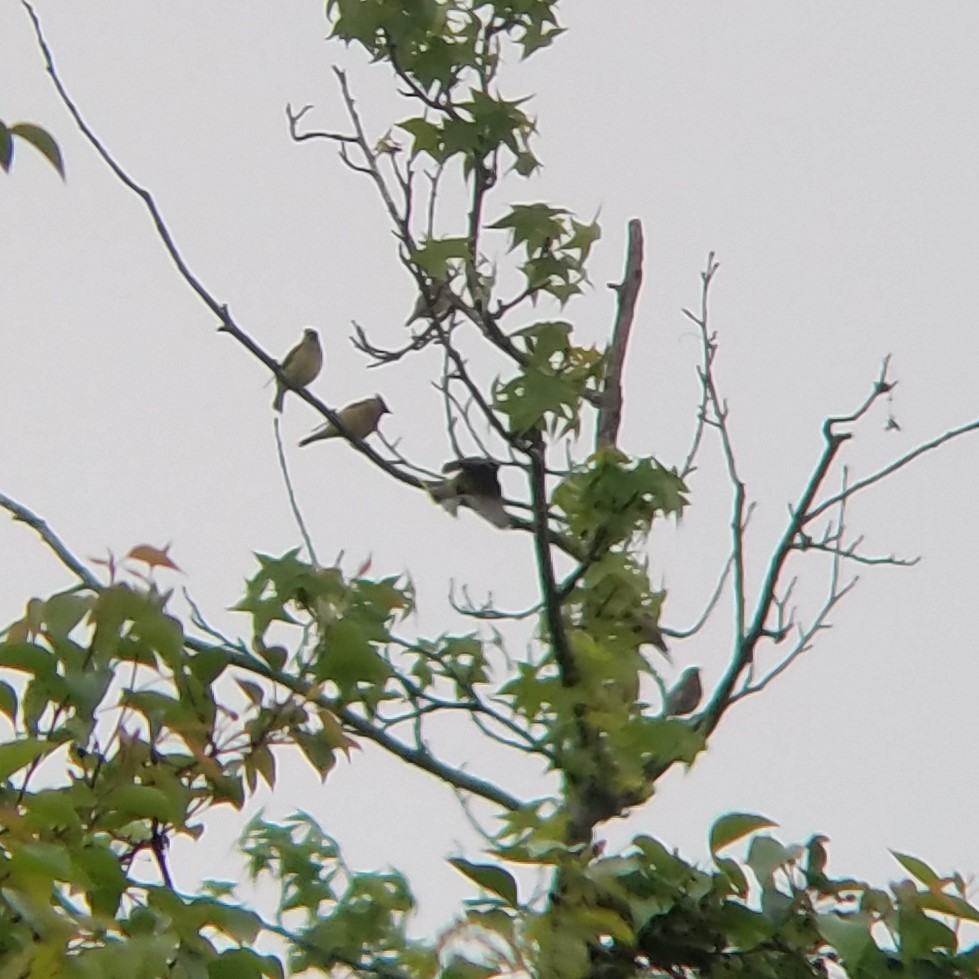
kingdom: Animalia
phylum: Chordata
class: Aves
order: Passeriformes
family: Bombycillidae
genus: Bombycilla
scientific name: Bombycilla cedrorum
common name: Cedar waxwing
